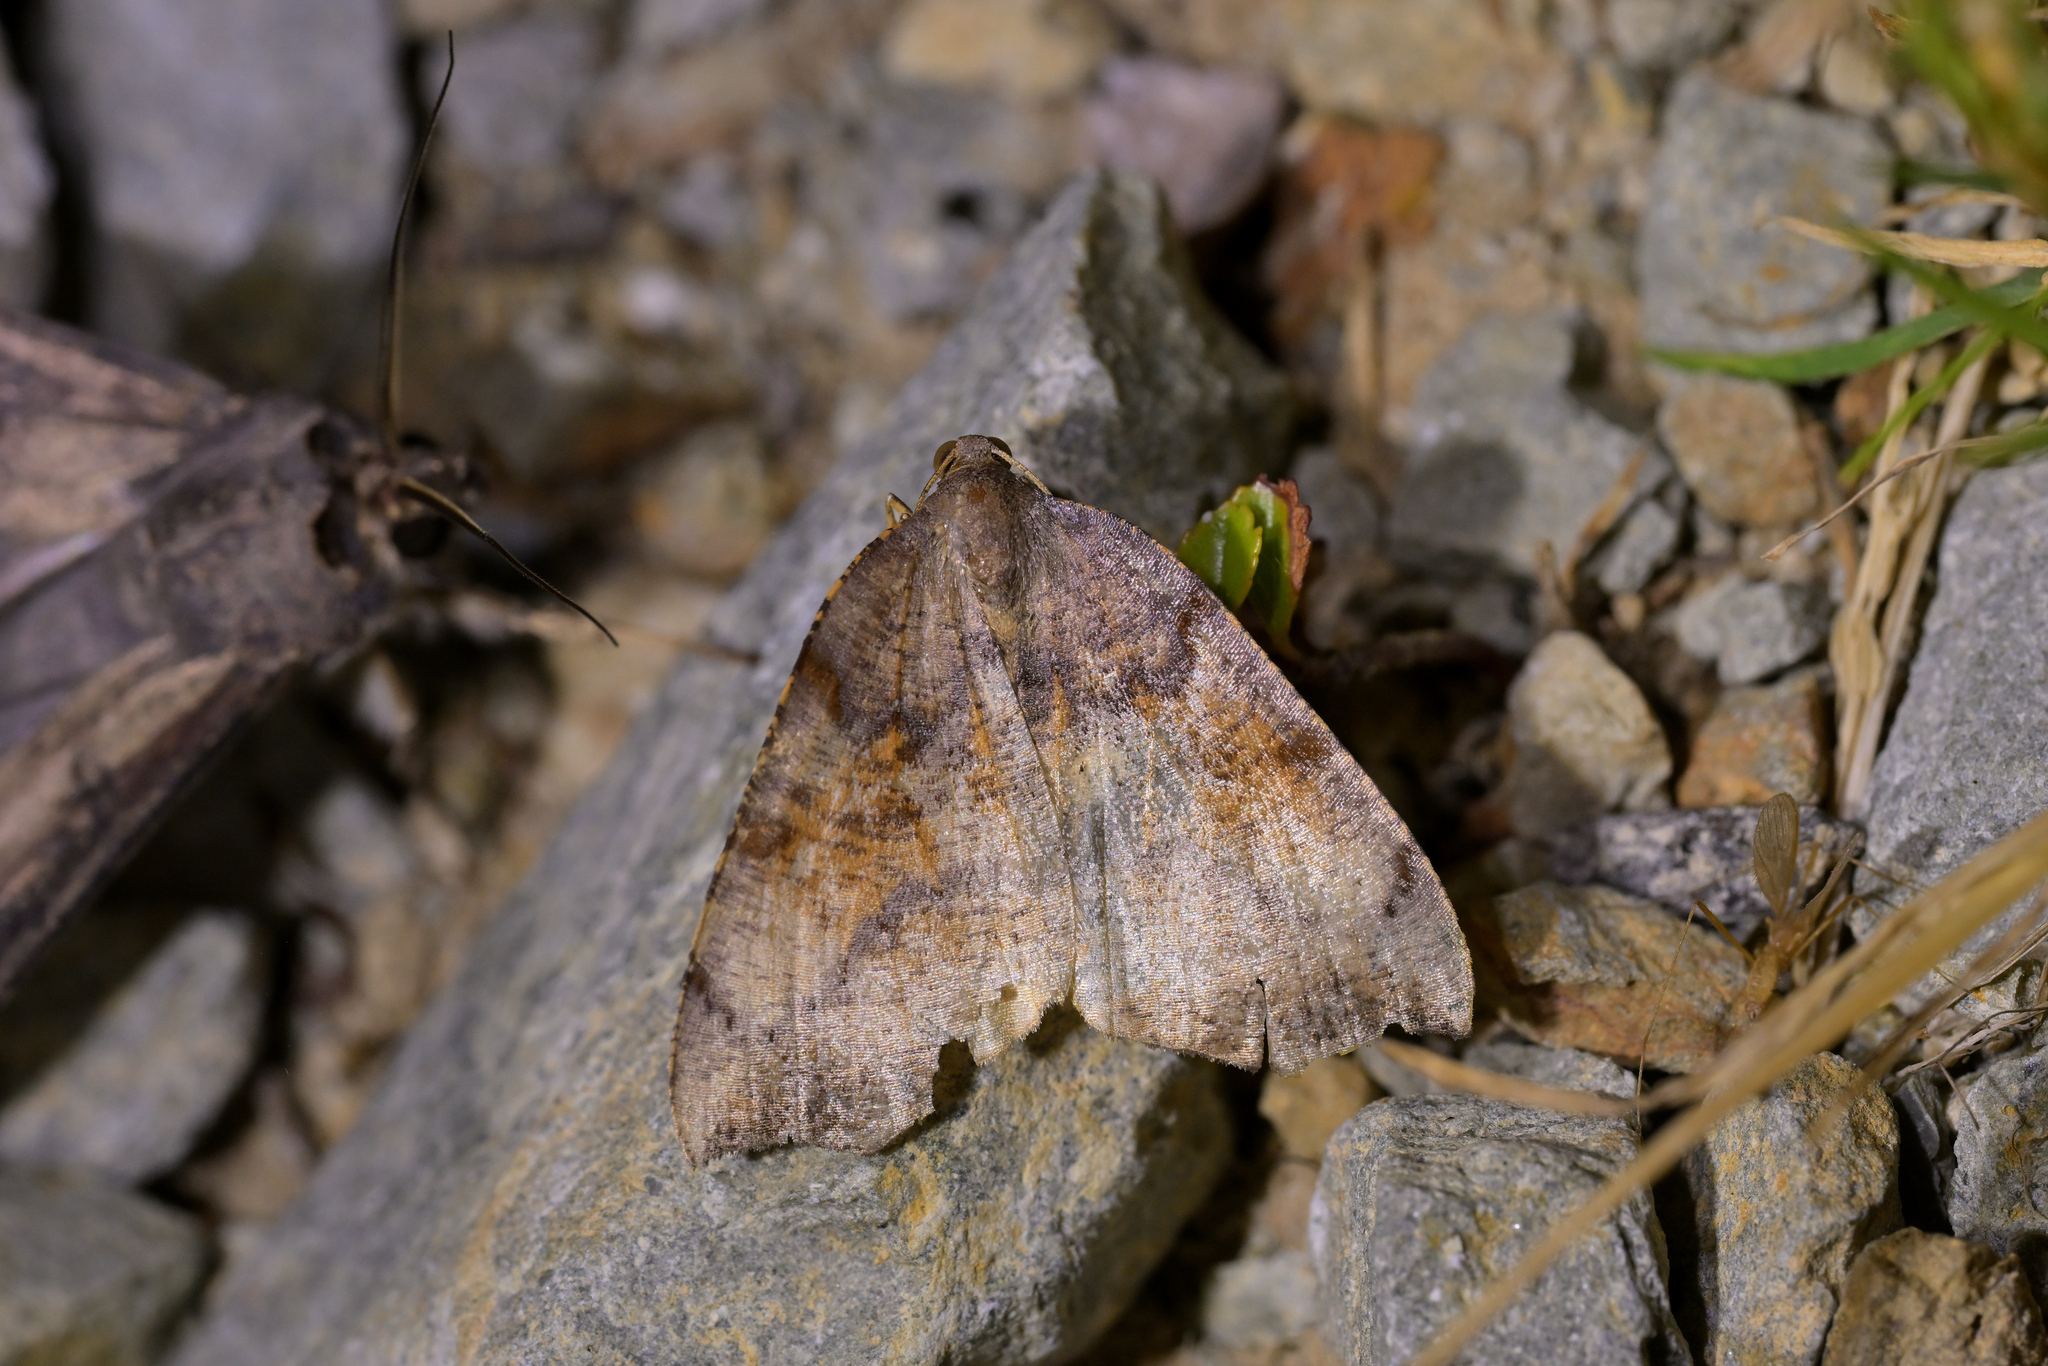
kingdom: Animalia
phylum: Arthropoda
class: Insecta
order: Lepidoptera
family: Geometridae
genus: Sestra
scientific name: Sestra flexata
